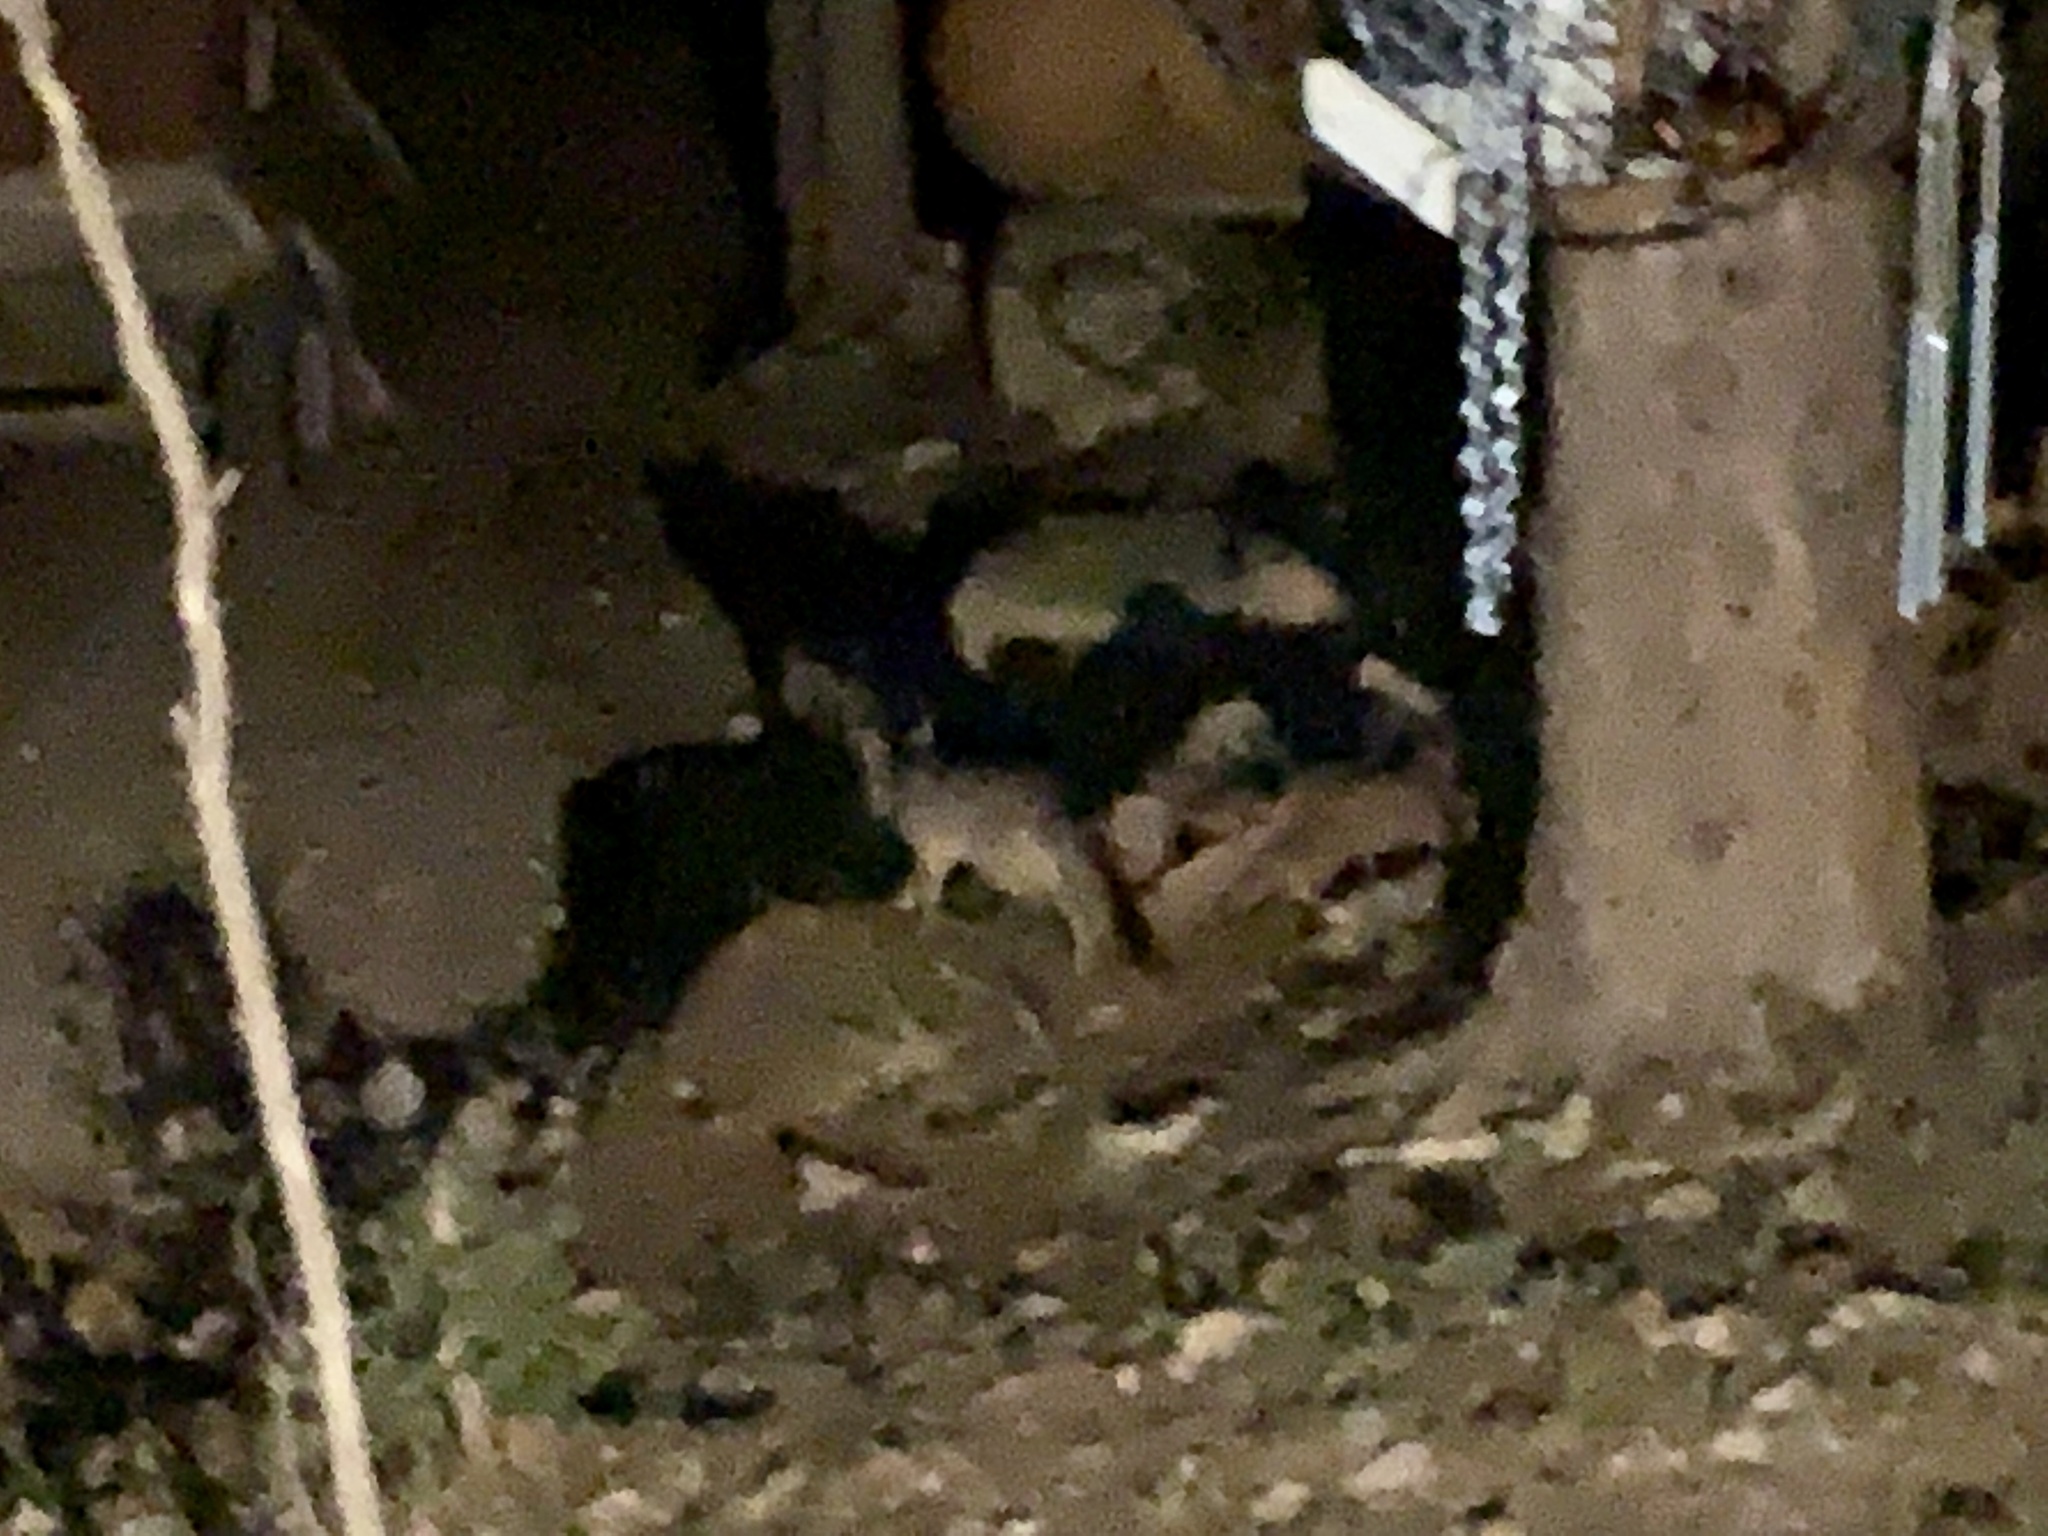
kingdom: Animalia
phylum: Chordata
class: Mammalia
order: Carnivora
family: Canidae
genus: Urocyon
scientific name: Urocyon cinereoargenteus
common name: Gray fox
